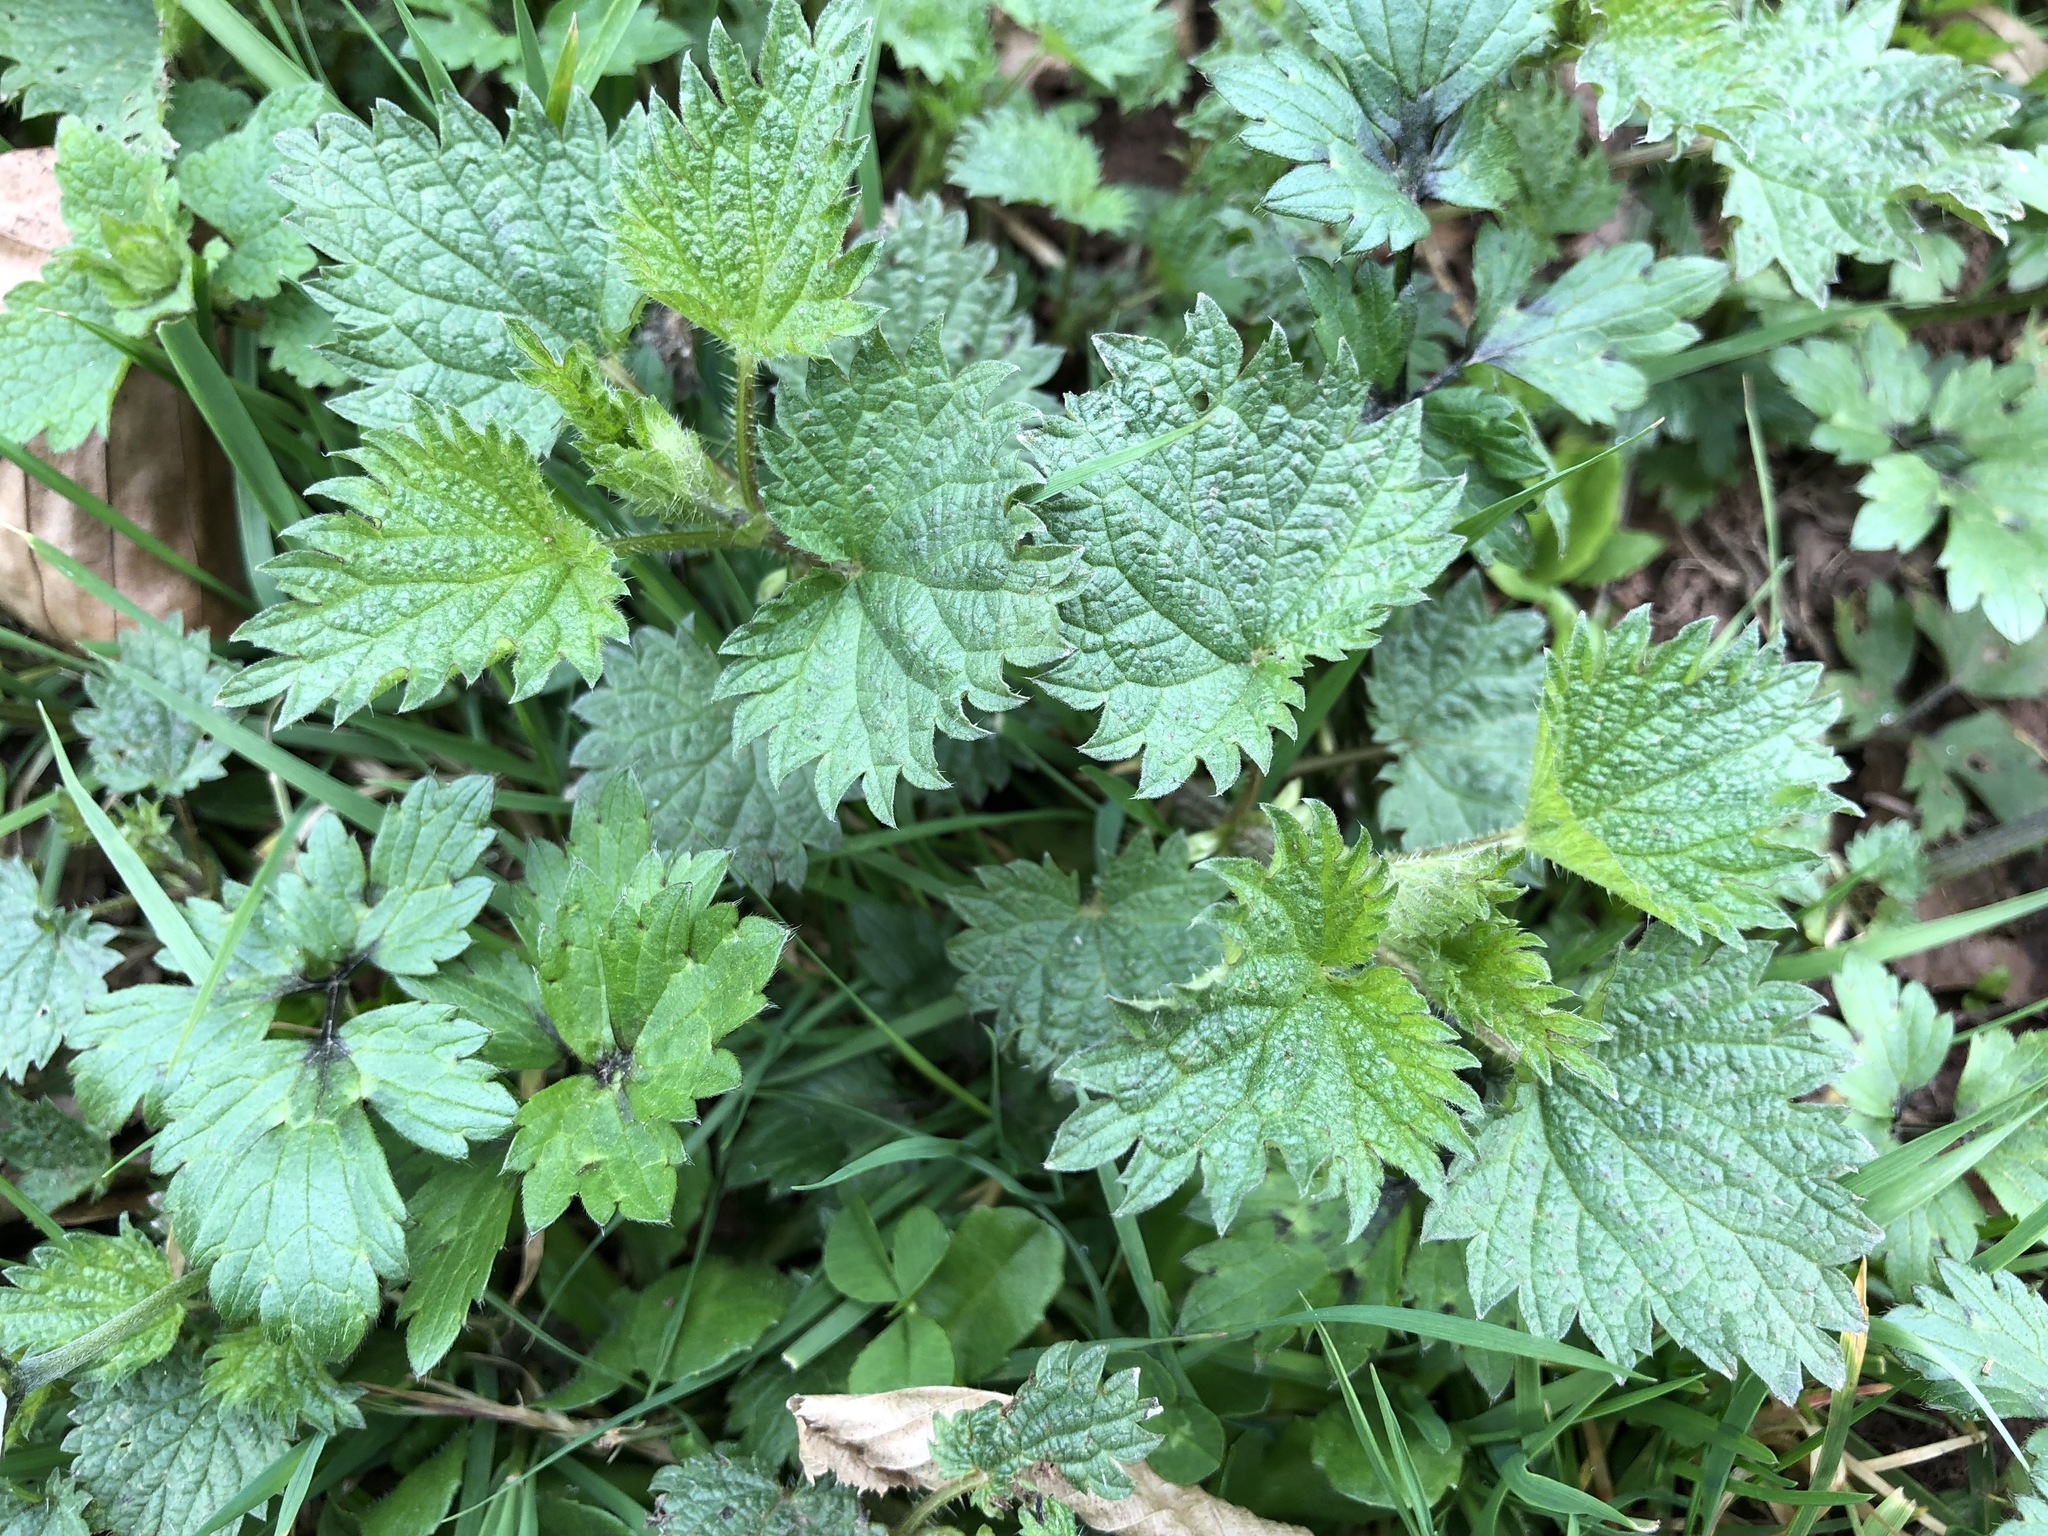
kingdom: Plantae
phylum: Tracheophyta
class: Magnoliopsida
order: Rosales
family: Urticaceae
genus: Urtica
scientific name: Urtica dioica
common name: Common nettle
